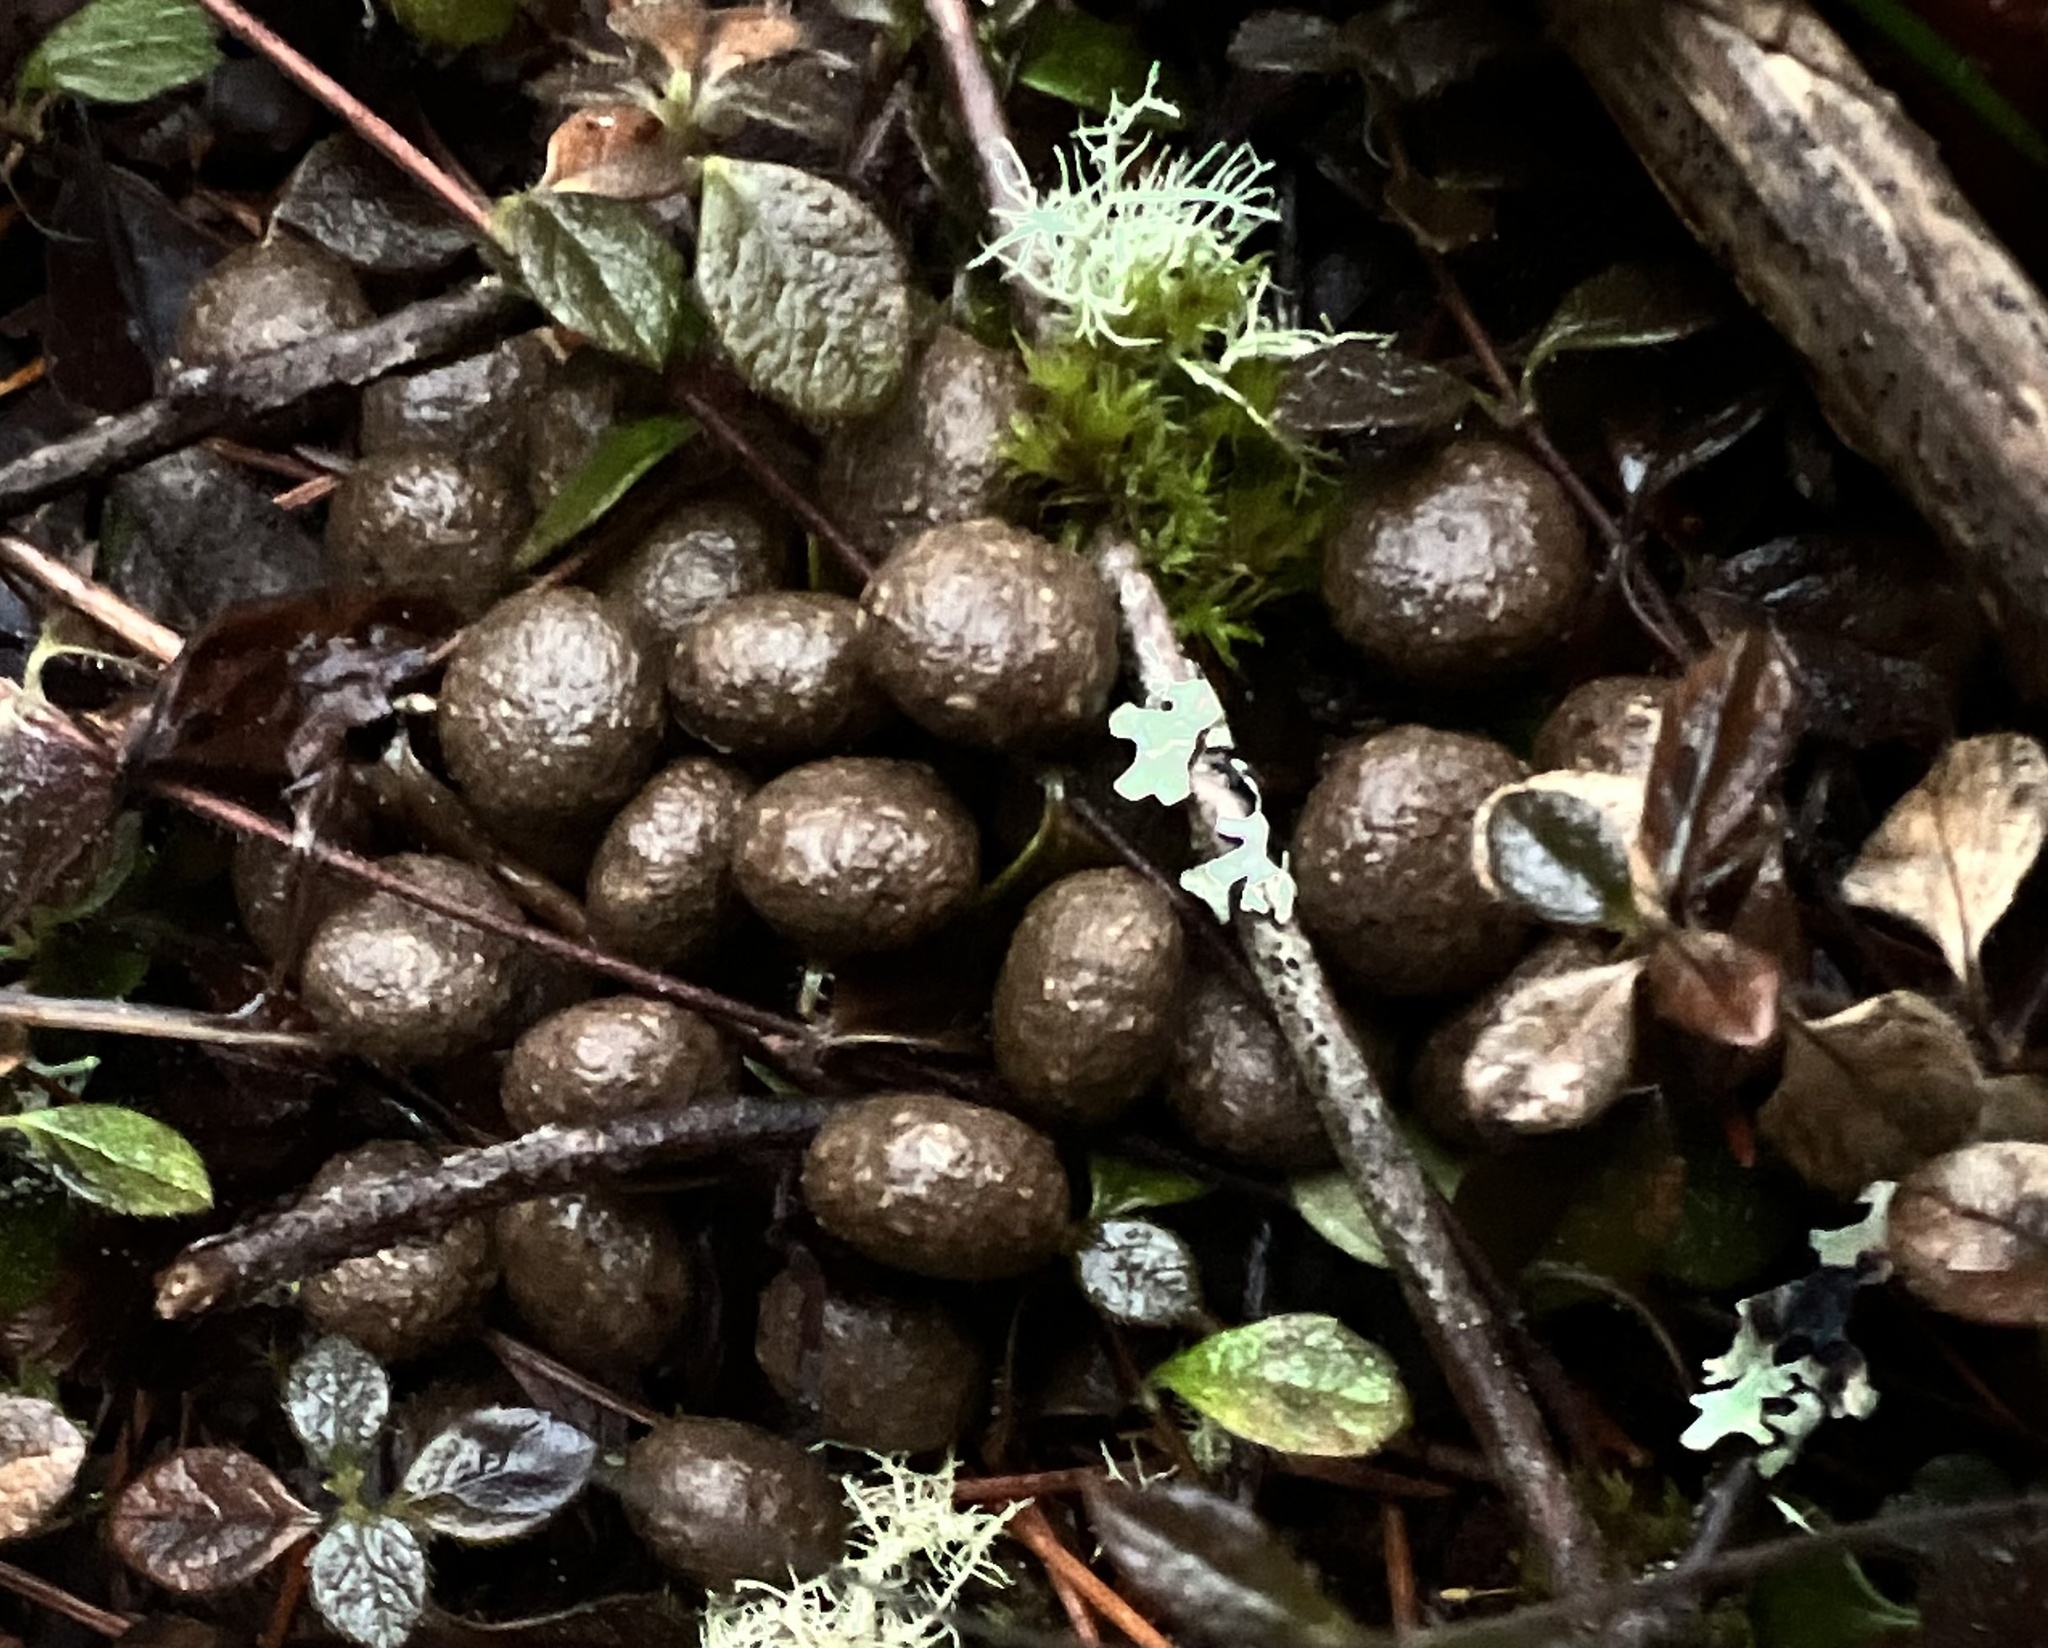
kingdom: Animalia
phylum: Chordata
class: Mammalia
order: Artiodactyla
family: Cervidae
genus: Odocoileus
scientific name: Odocoileus hemionus
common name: Mule deer
